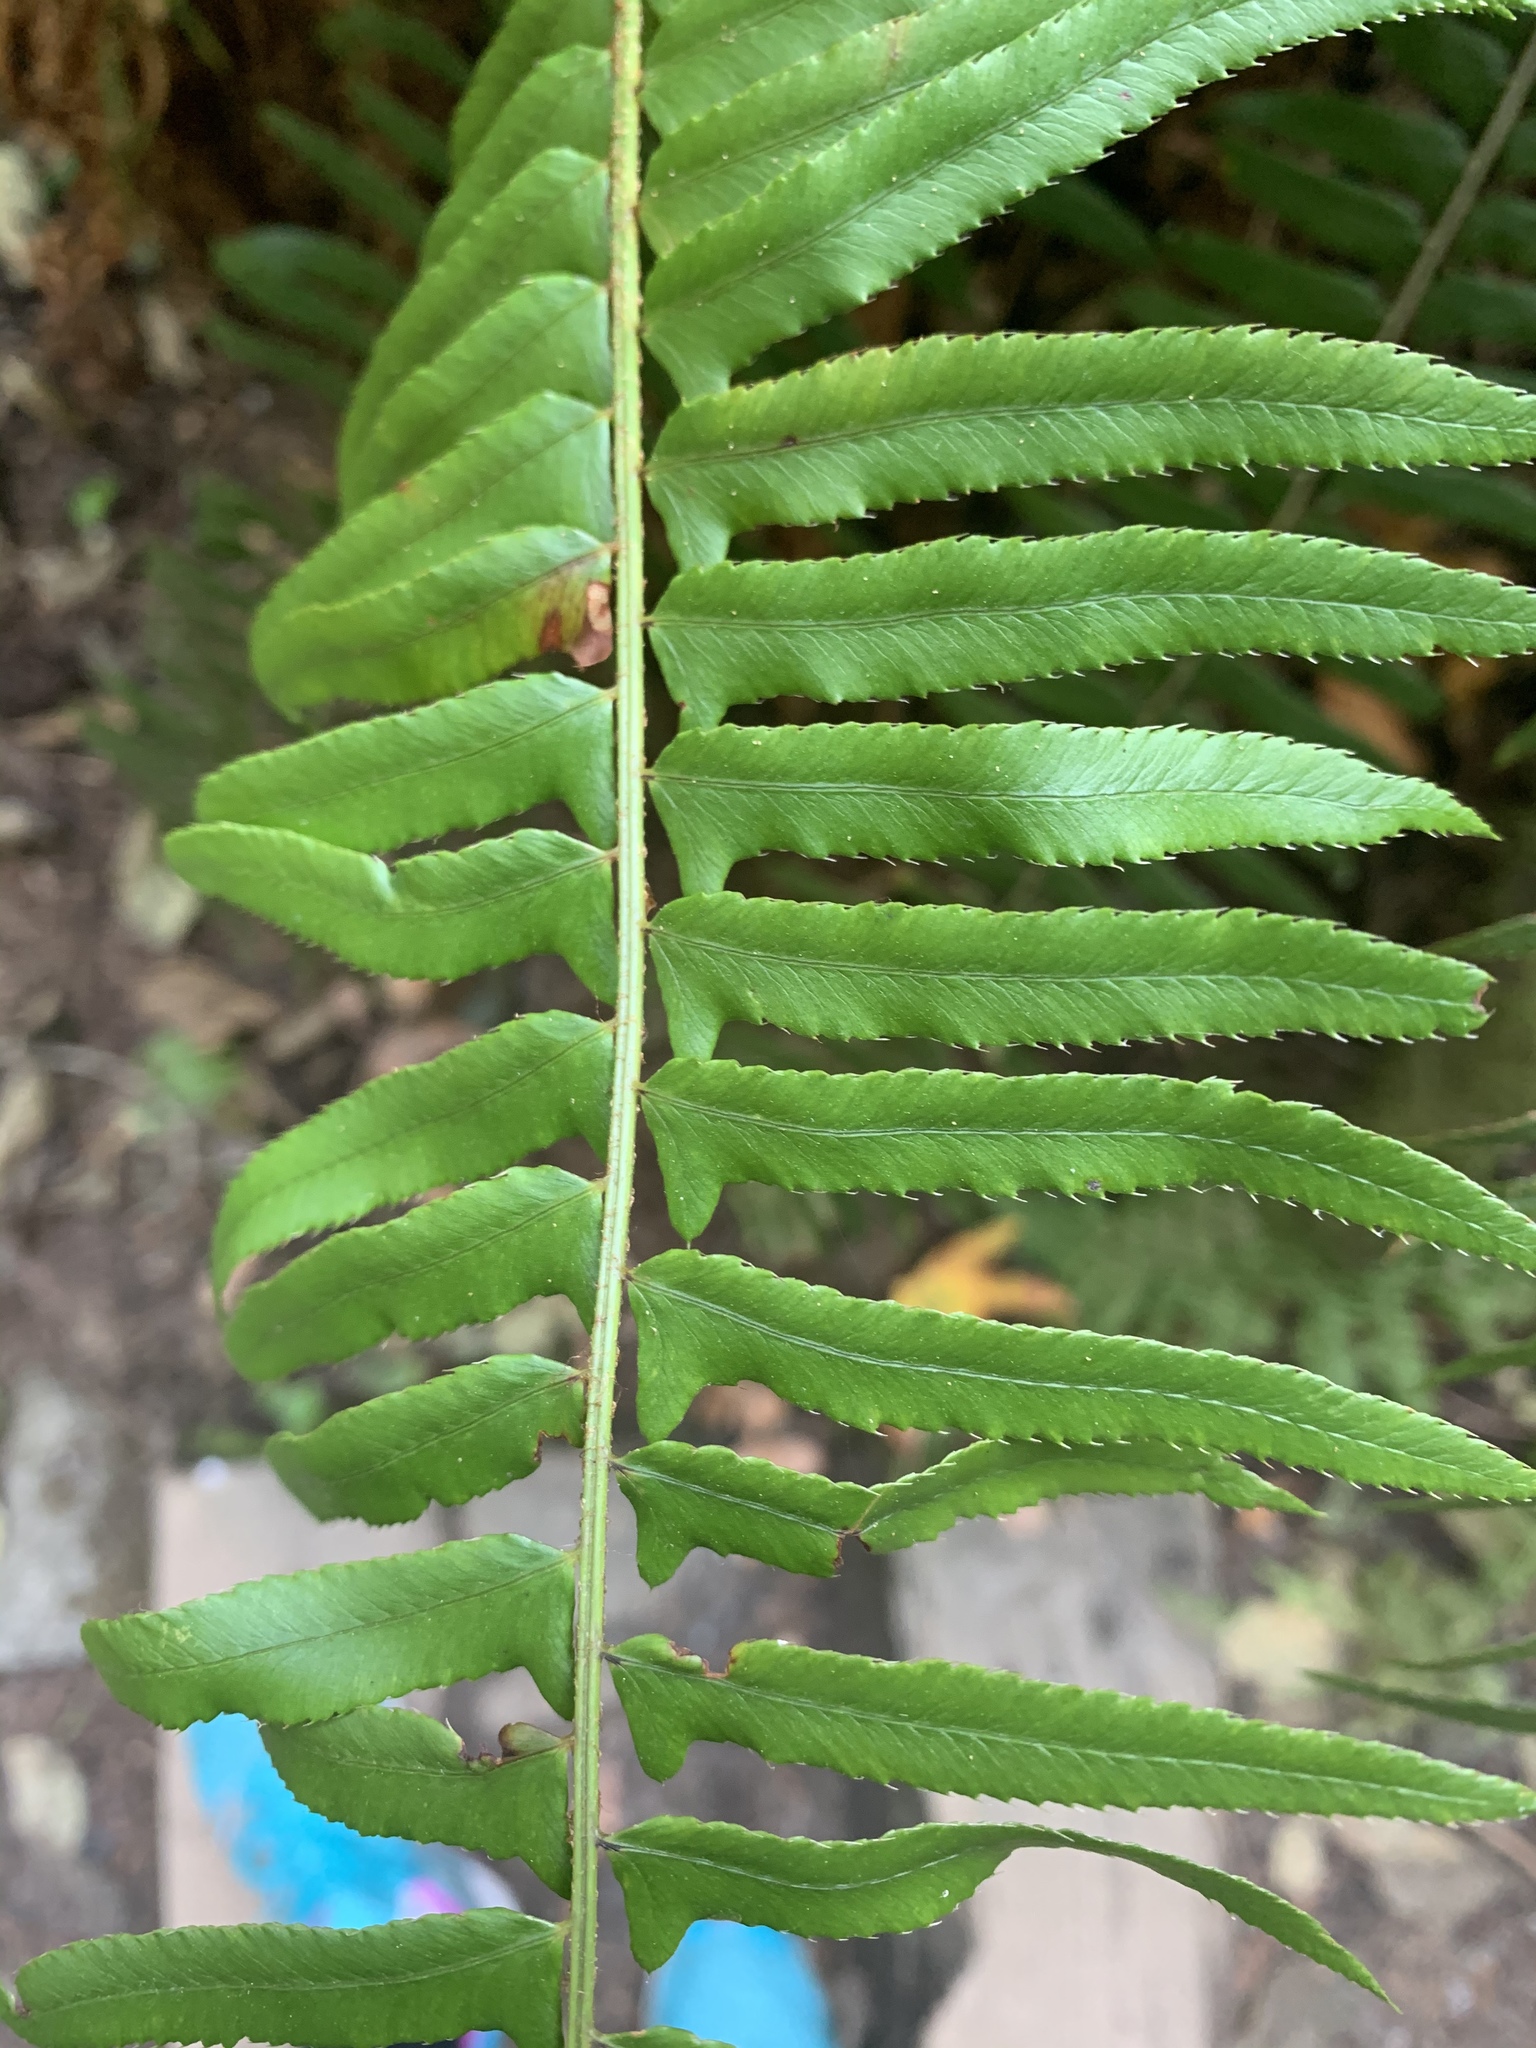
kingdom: Plantae
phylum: Tracheophyta
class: Polypodiopsida
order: Polypodiales
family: Dryopteridaceae
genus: Polystichum
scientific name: Polystichum munitum
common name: Western sword-fern
